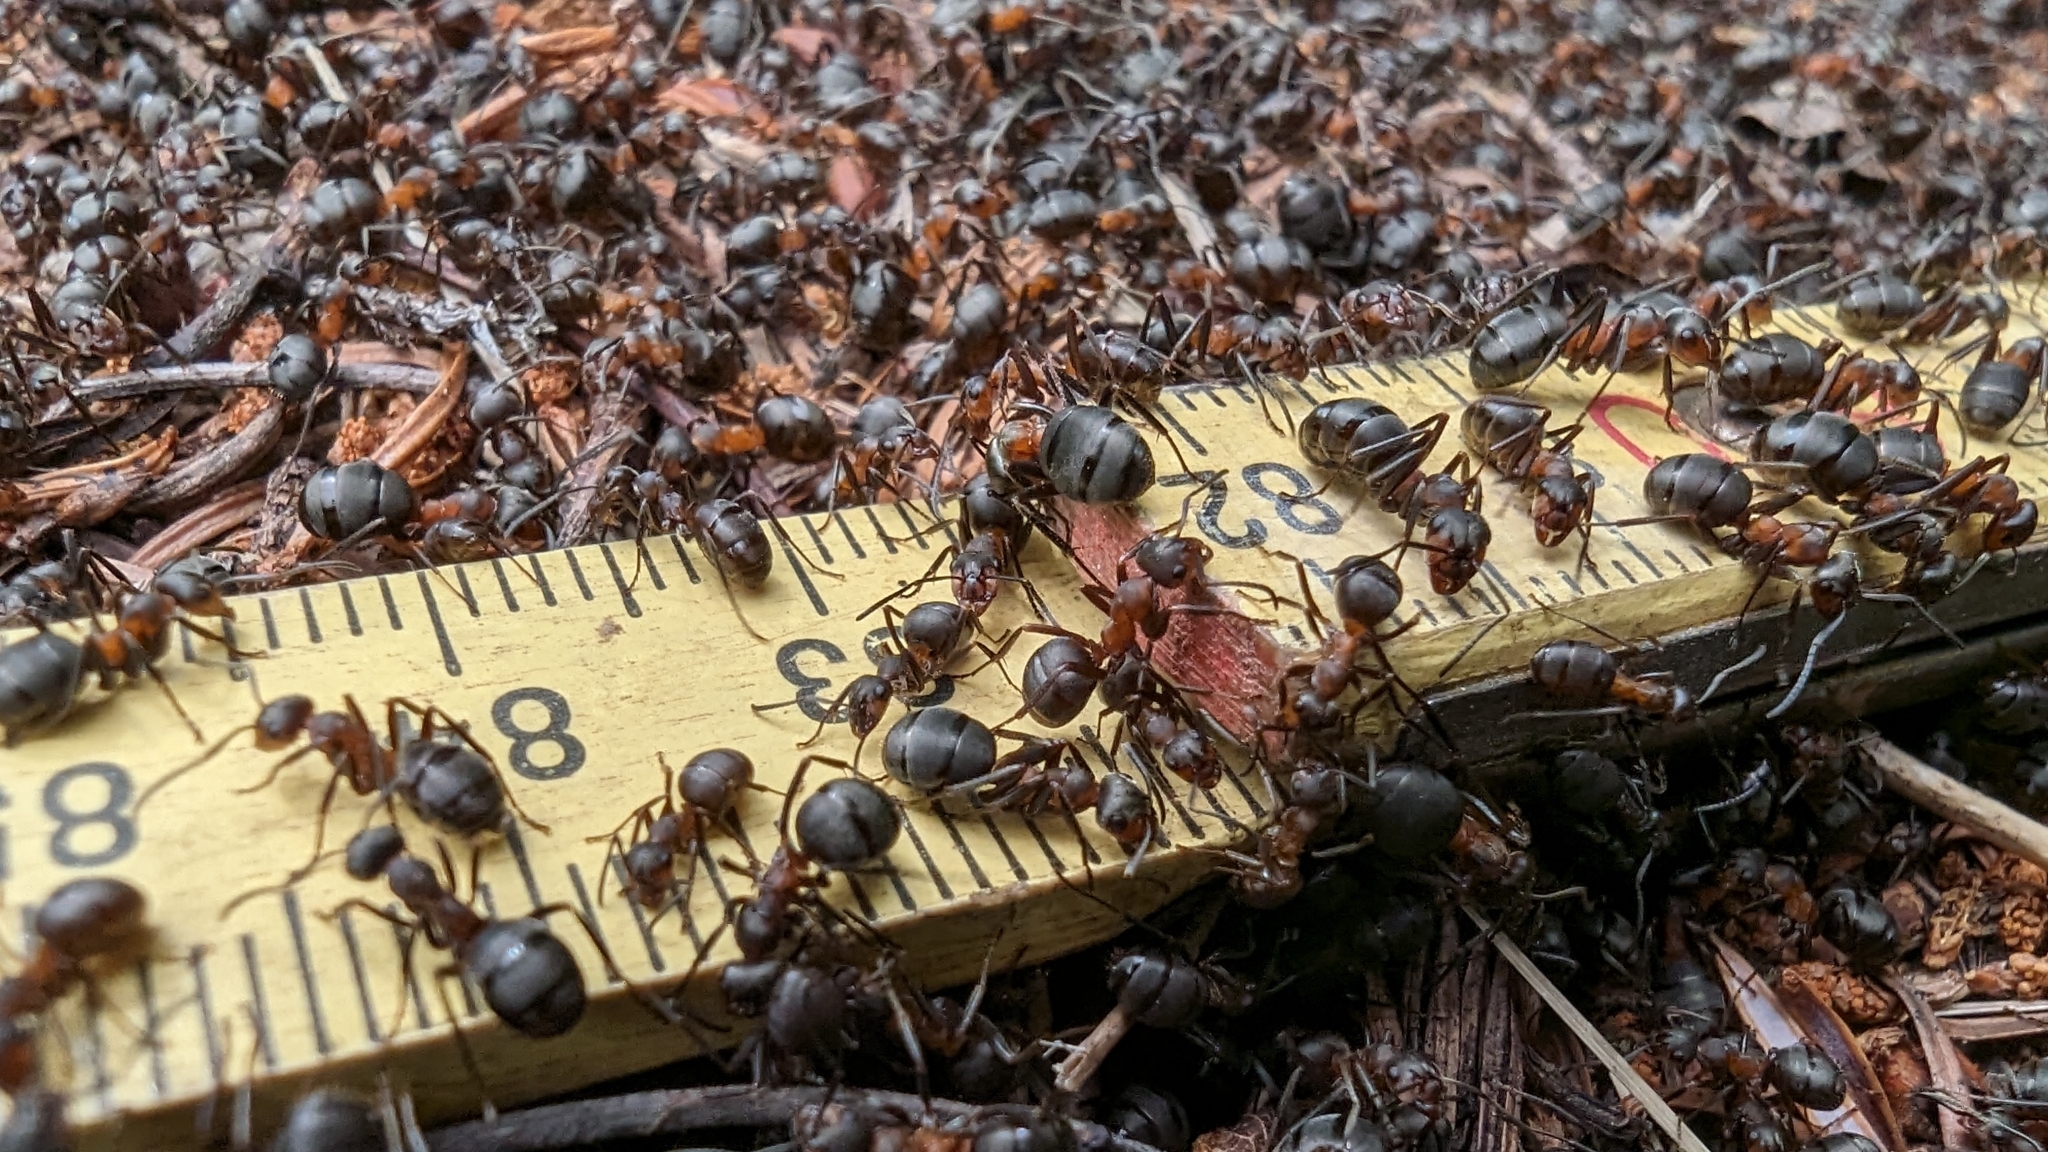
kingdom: Animalia
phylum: Arthropoda
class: Insecta
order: Hymenoptera
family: Formicidae
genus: Formica
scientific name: Formica
